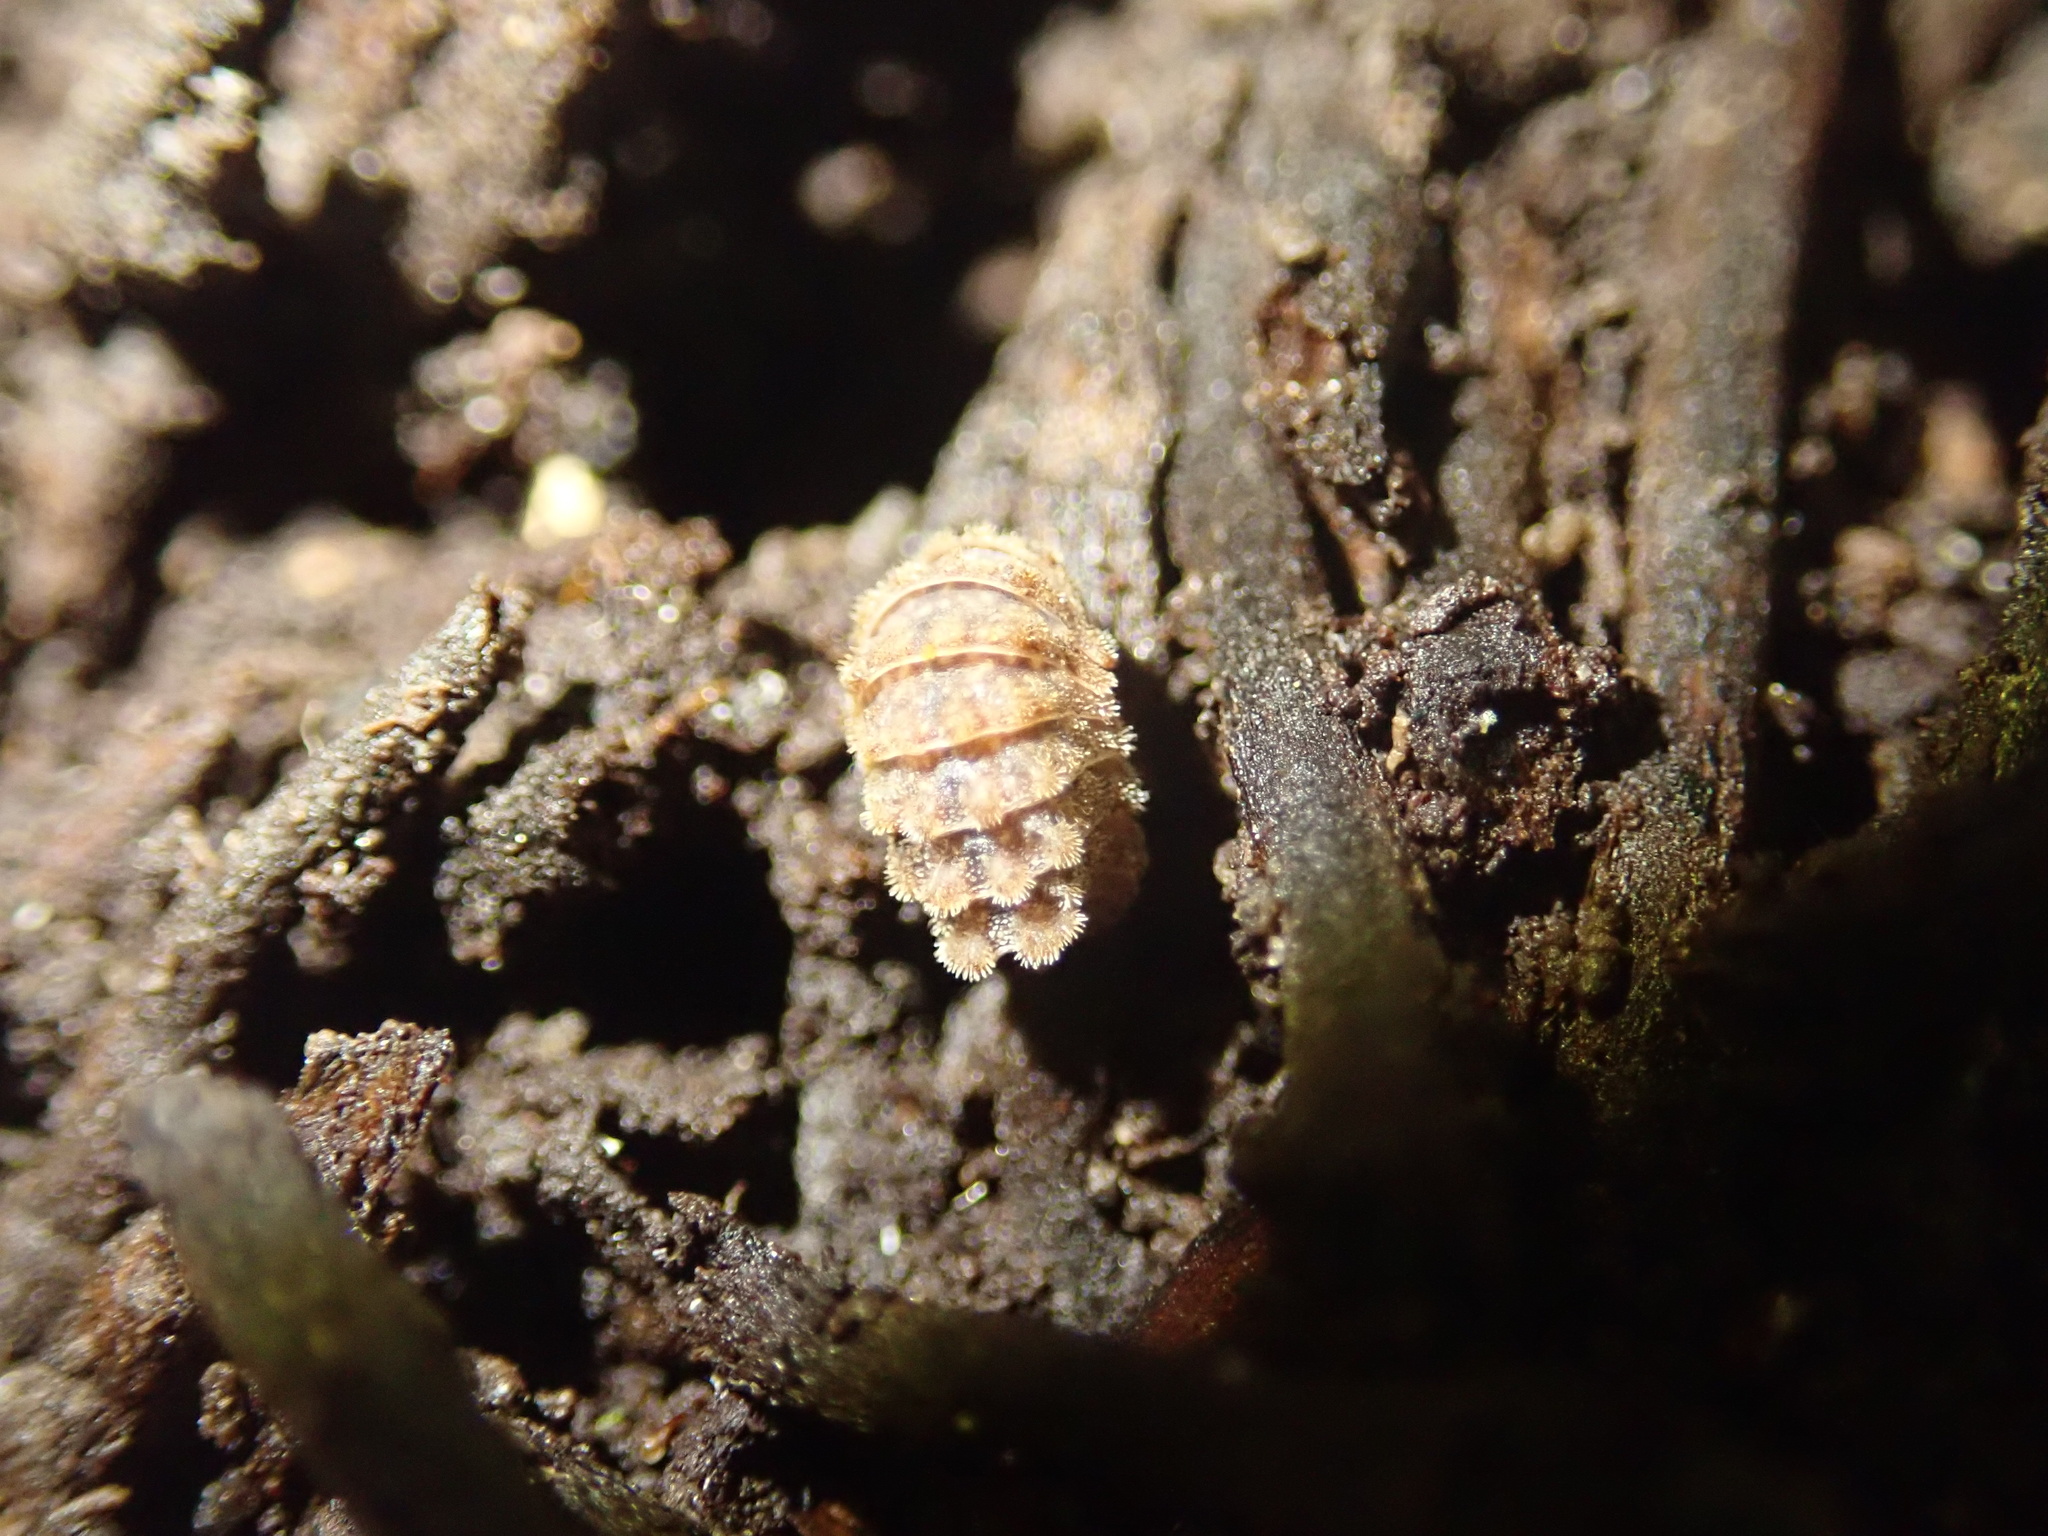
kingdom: Animalia
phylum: Arthropoda
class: Malacostraca
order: Isopoda
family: Armadillidae
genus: Spherillo
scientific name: Spherillo Sphaerilloides macmahoni
